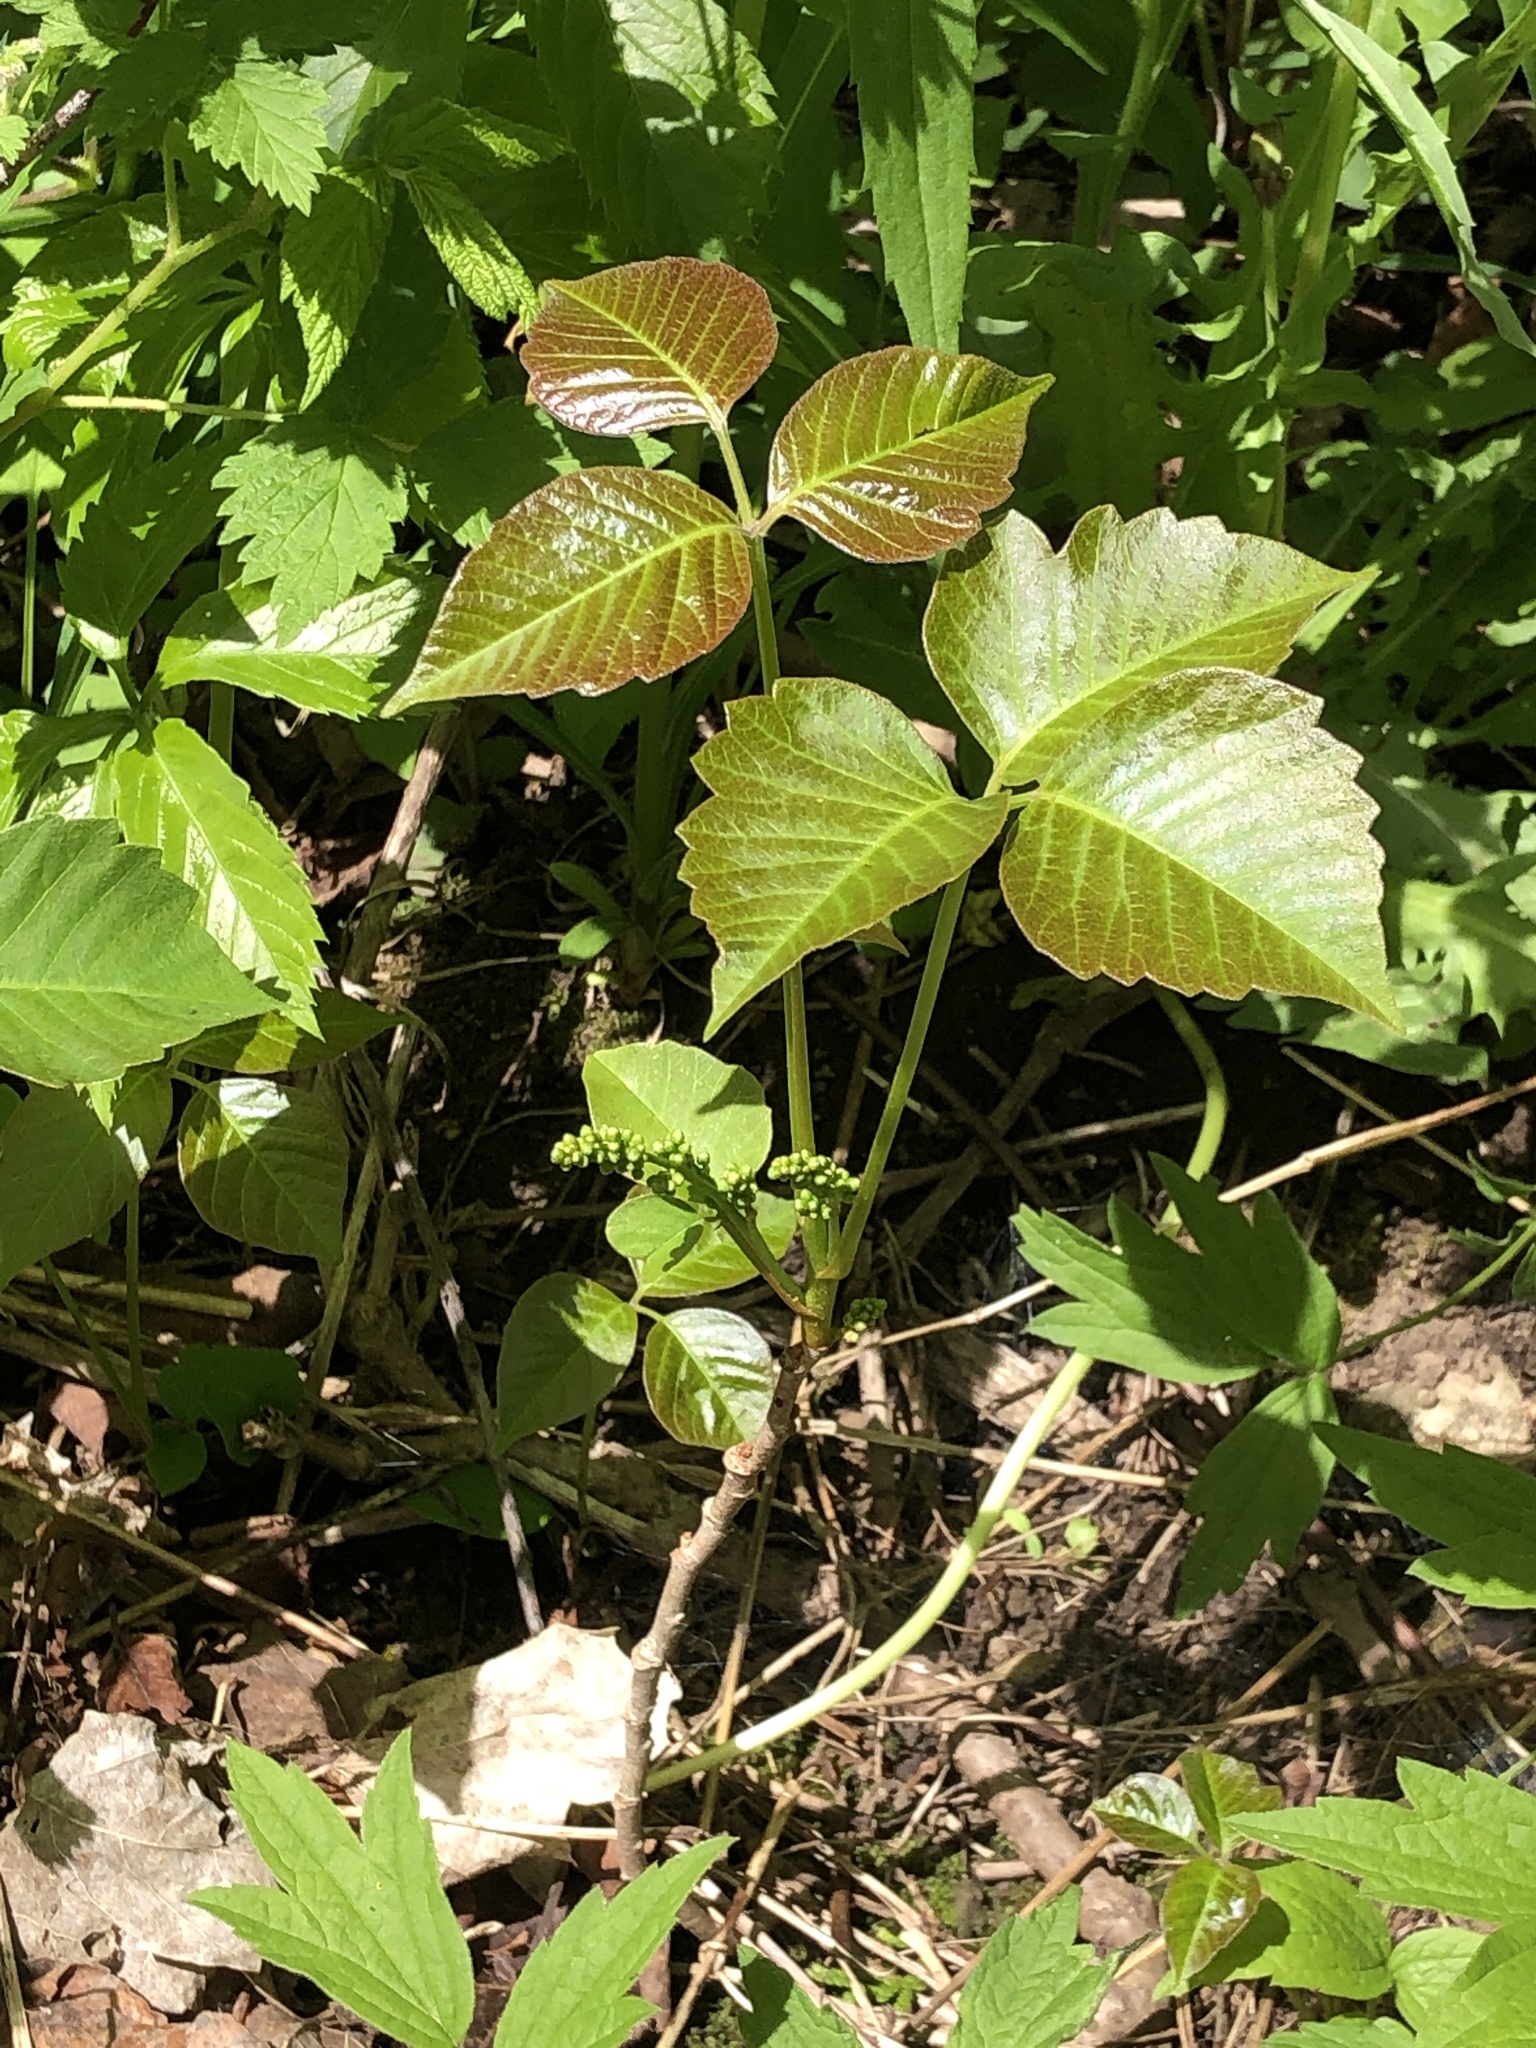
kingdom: Plantae
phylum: Tracheophyta
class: Magnoliopsida
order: Sapindales
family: Anacardiaceae
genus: Toxicodendron
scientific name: Toxicodendron rydbergii
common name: Rydberg's poison-ivy
